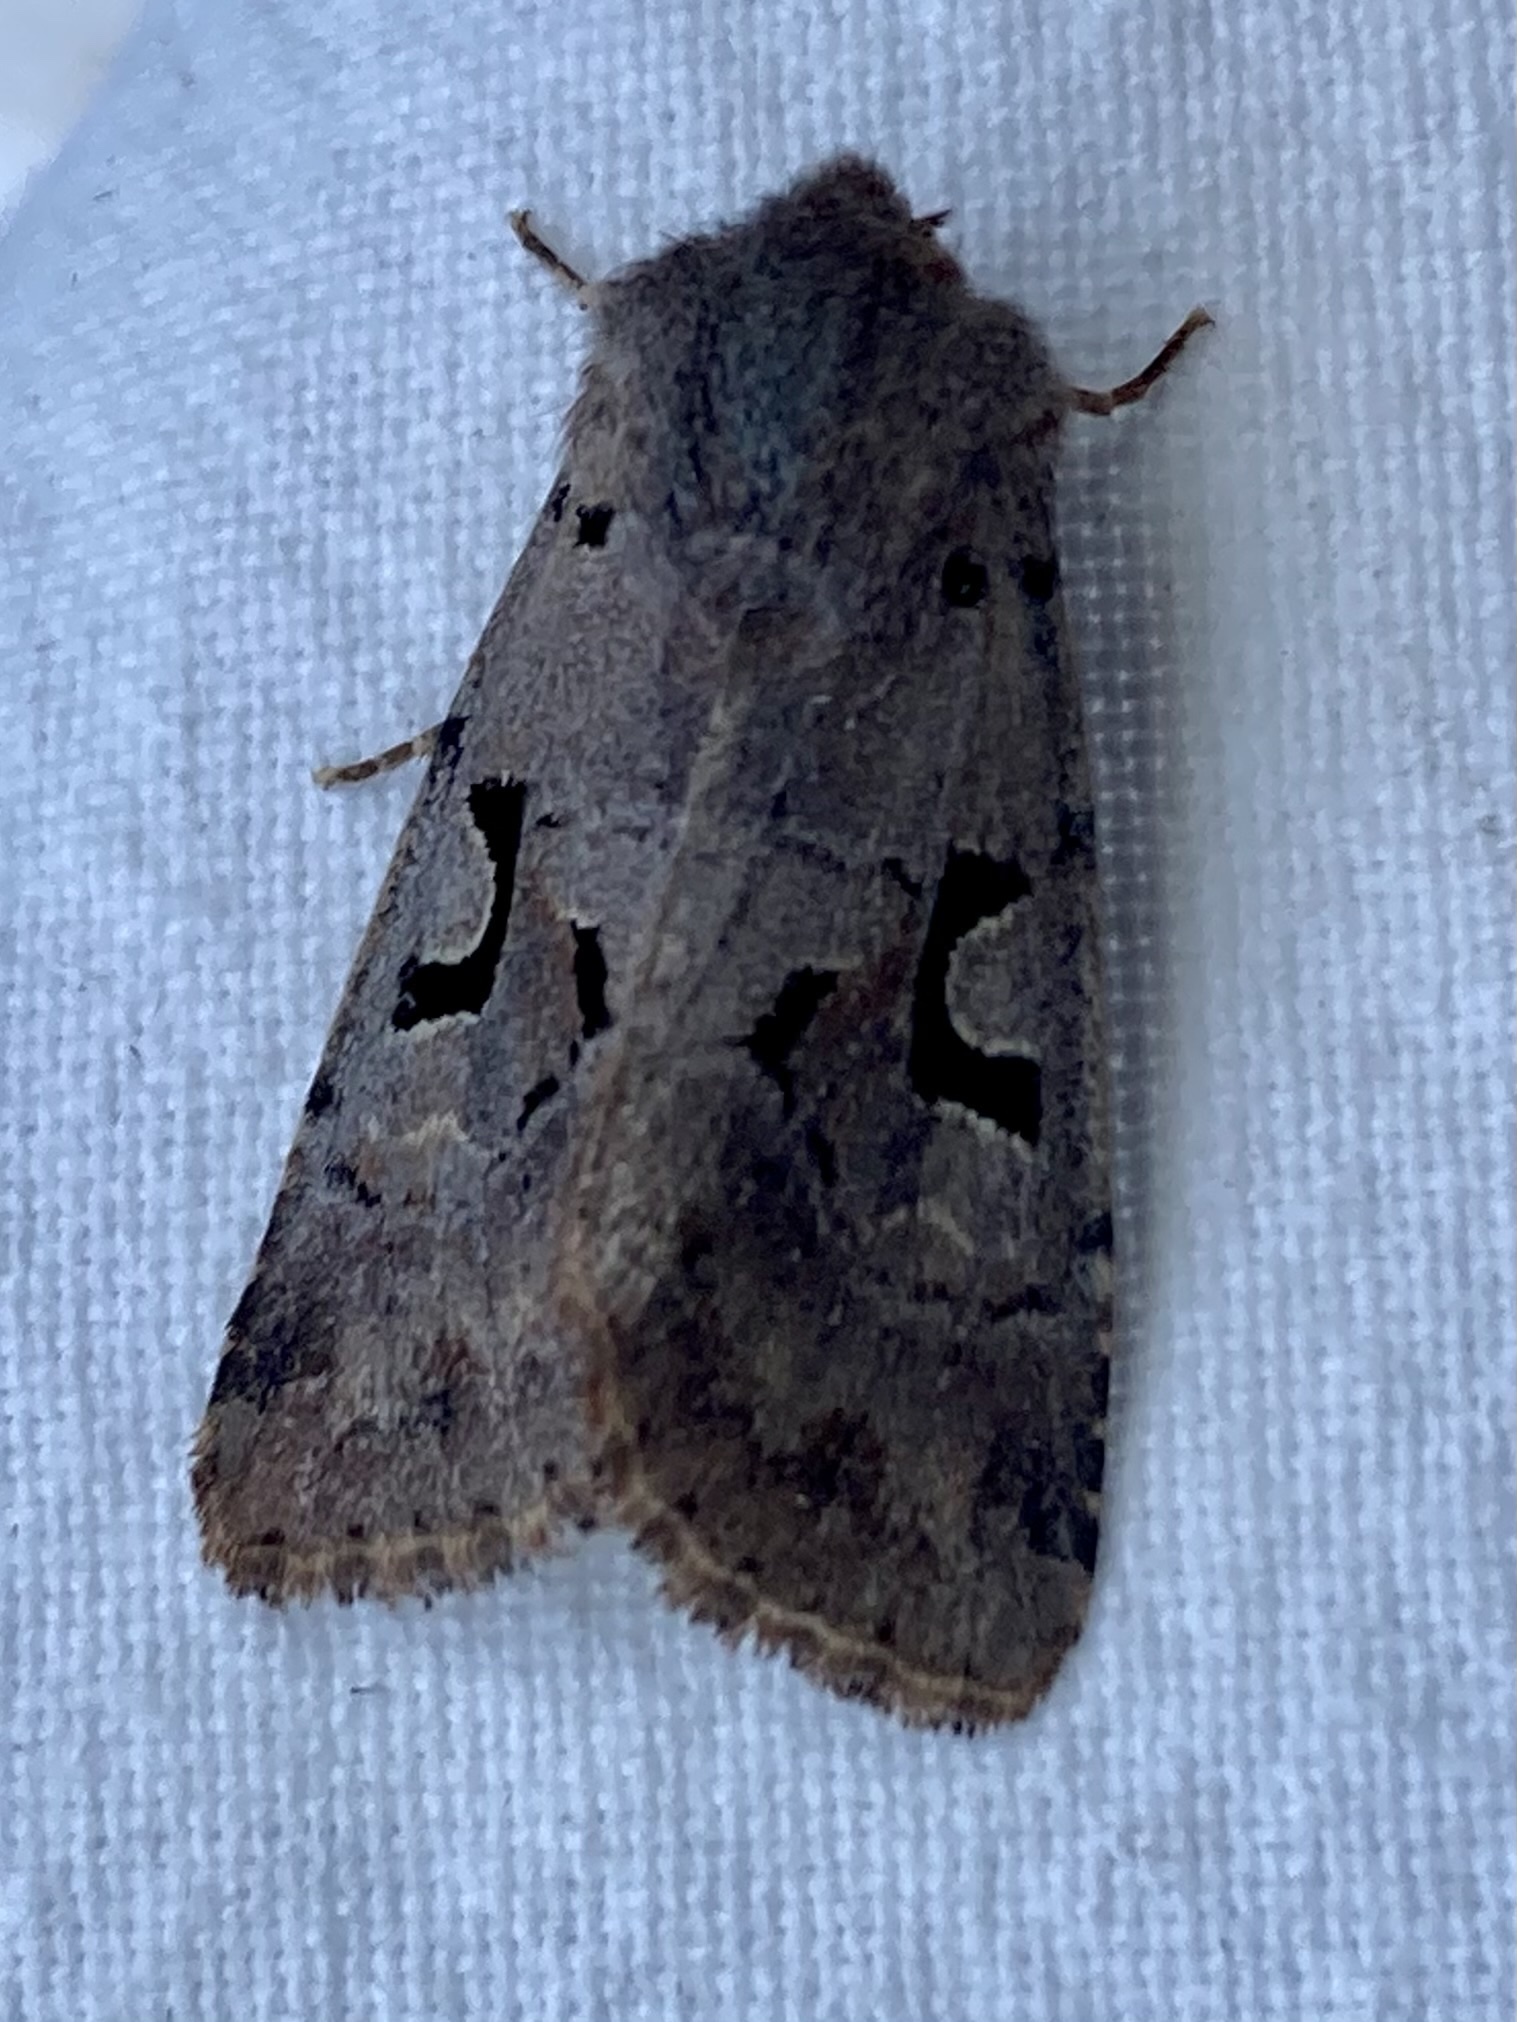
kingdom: Animalia
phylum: Arthropoda
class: Insecta
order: Lepidoptera
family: Noctuidae
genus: Orthosia
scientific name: Orthosia gothica
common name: Hebrew character
